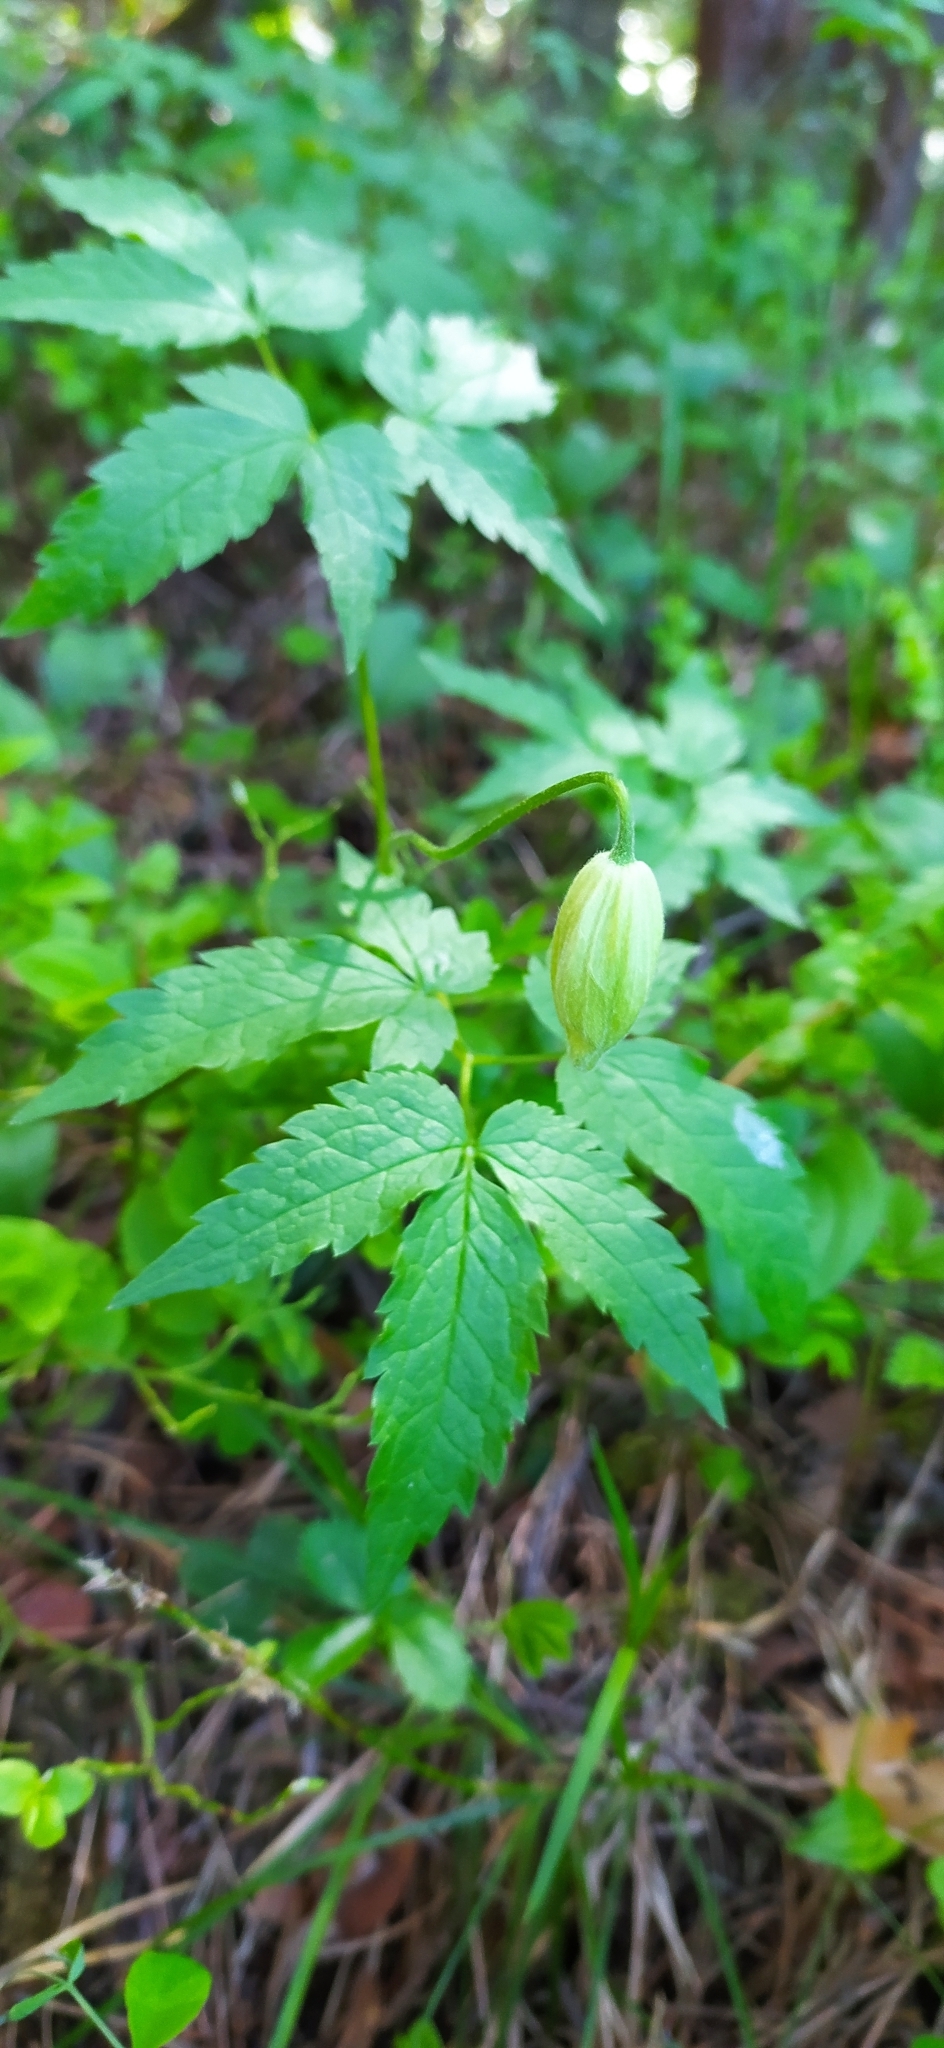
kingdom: Plantae
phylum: Tracheophyta
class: Magnoliopsida
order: Ranunculales
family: Ranunculaceae
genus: Clematis
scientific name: Clematis sibirica
